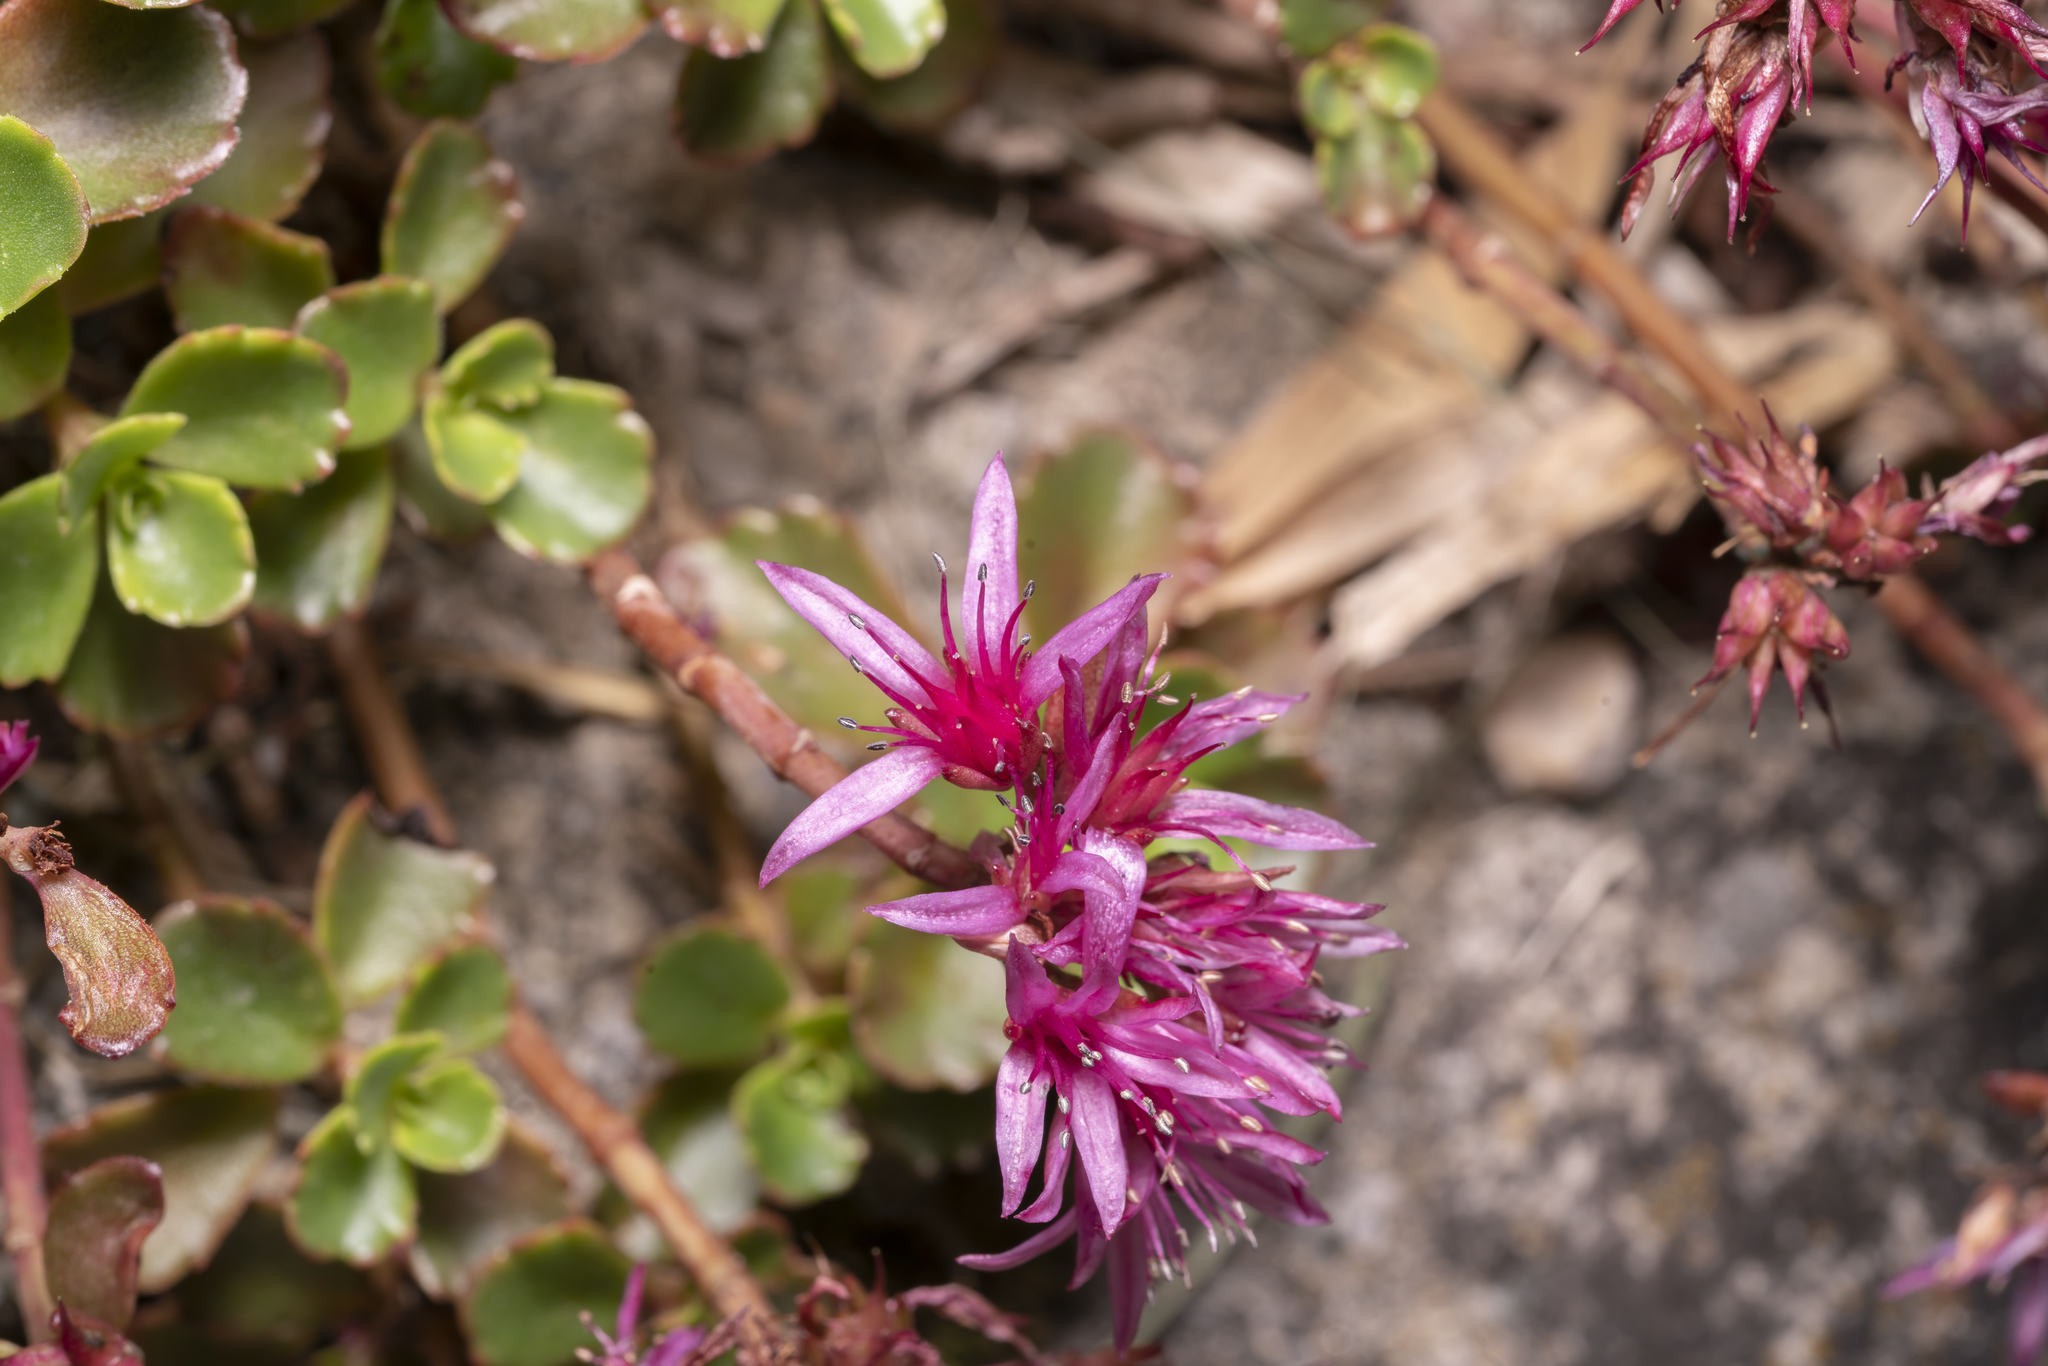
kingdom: Plantae
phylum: Tracheophyta
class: Magnoliopsida
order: Saxifragales
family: Crassulaceae
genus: Phedimus
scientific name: Phedimus spurius
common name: Caucasian stonecrop
